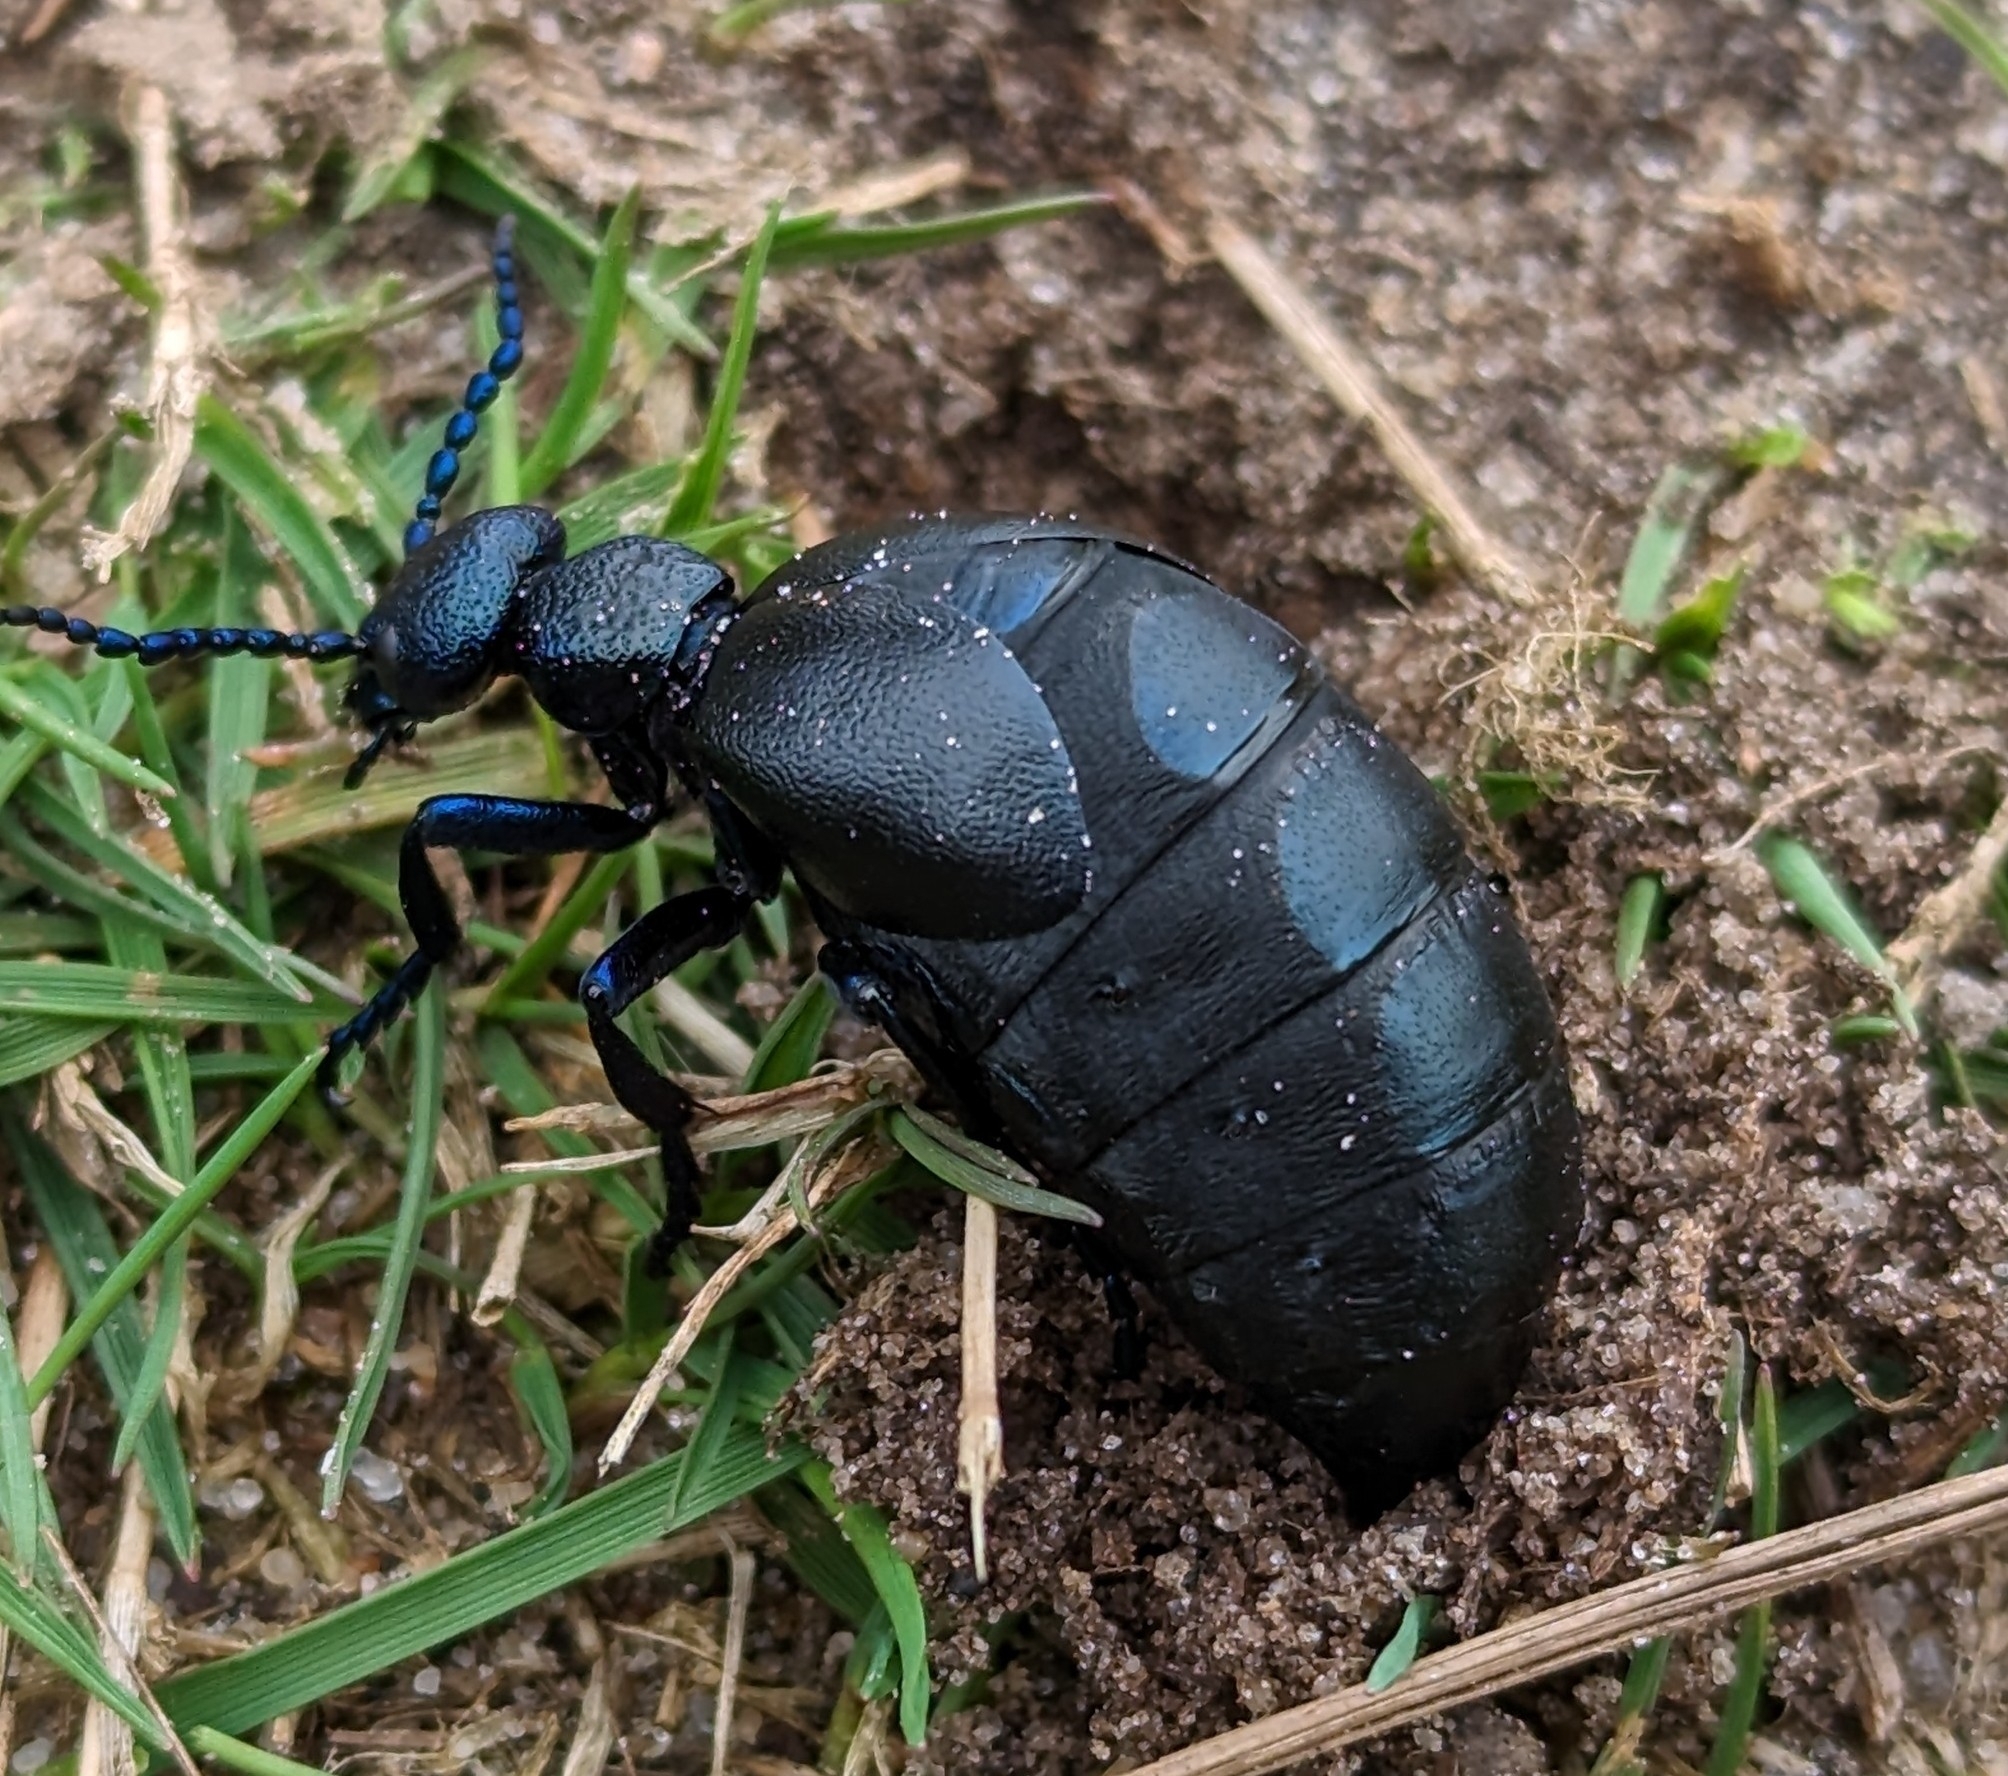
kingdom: Animalia
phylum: Arthropoda
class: Insecta
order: Coleoptera
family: Meloidae
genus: Meloe
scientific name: Meloe proscarabaeus
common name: Black oil-beetle
